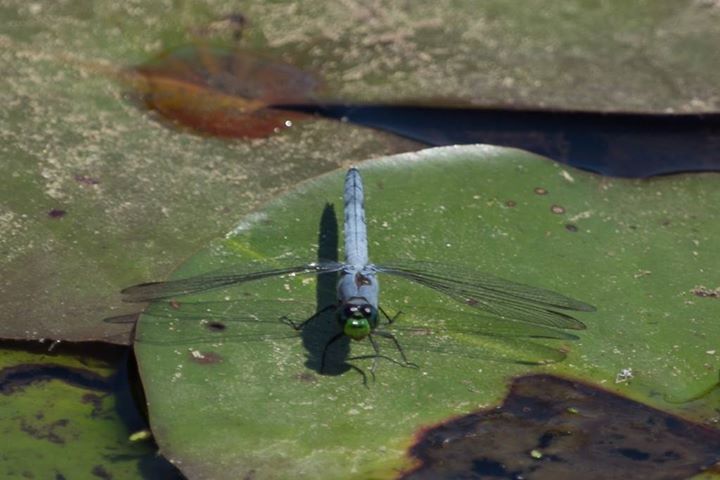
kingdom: Animalia
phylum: Arthropoda
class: Insecta
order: Odonata
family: Libellulidae
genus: Erythemis
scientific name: Erythemis simplicicollis
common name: Eastern pondhawk
